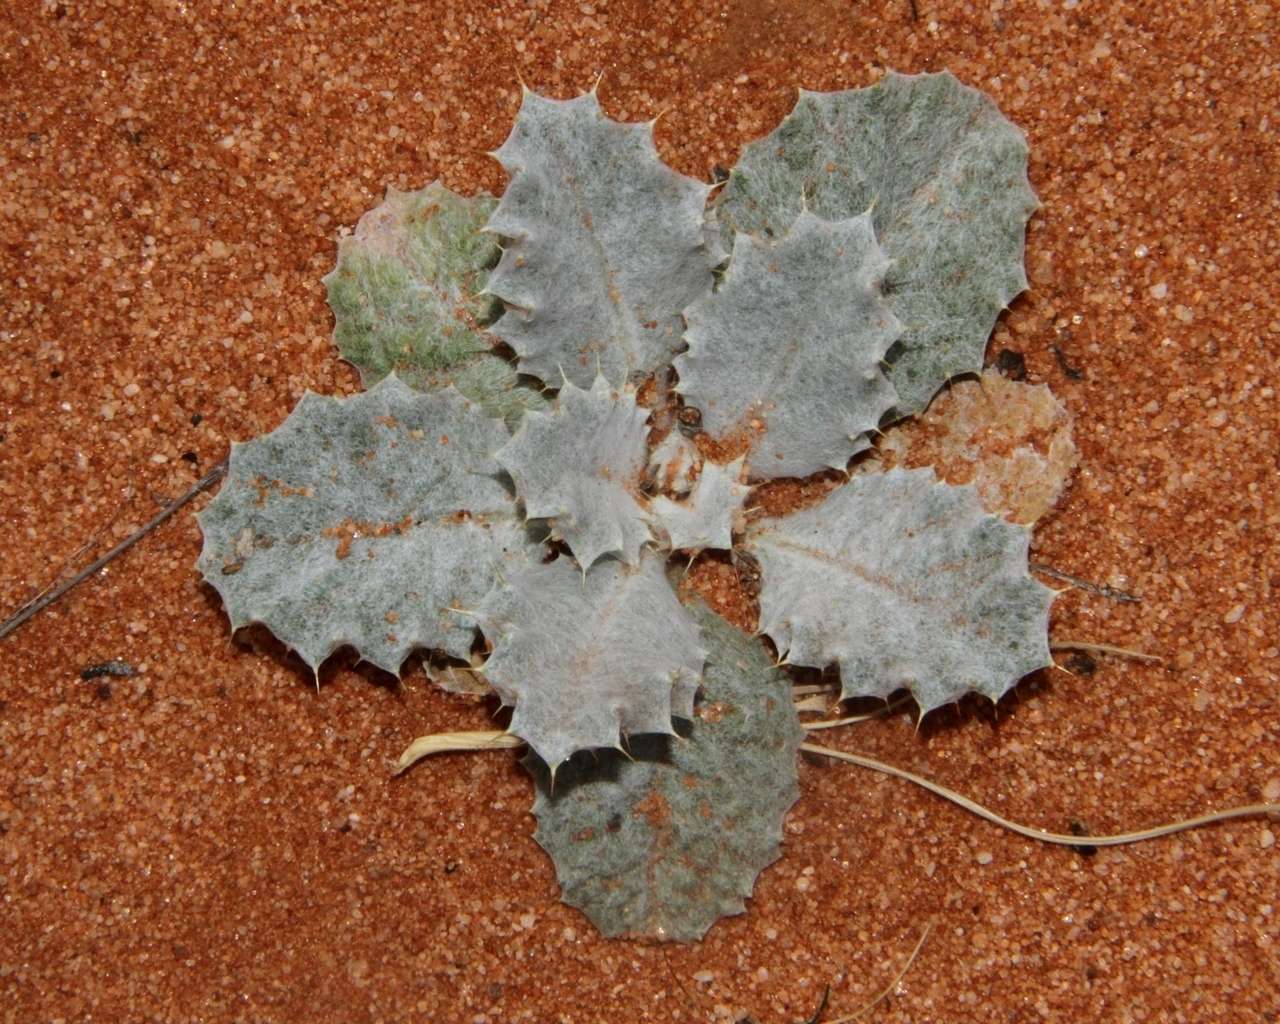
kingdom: Plantae
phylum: Tracheophyta
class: Magnoliopsida
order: Asterales
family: Asteraceae
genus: Onopordum
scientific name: Onopordum acaulon
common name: Horse thistle
